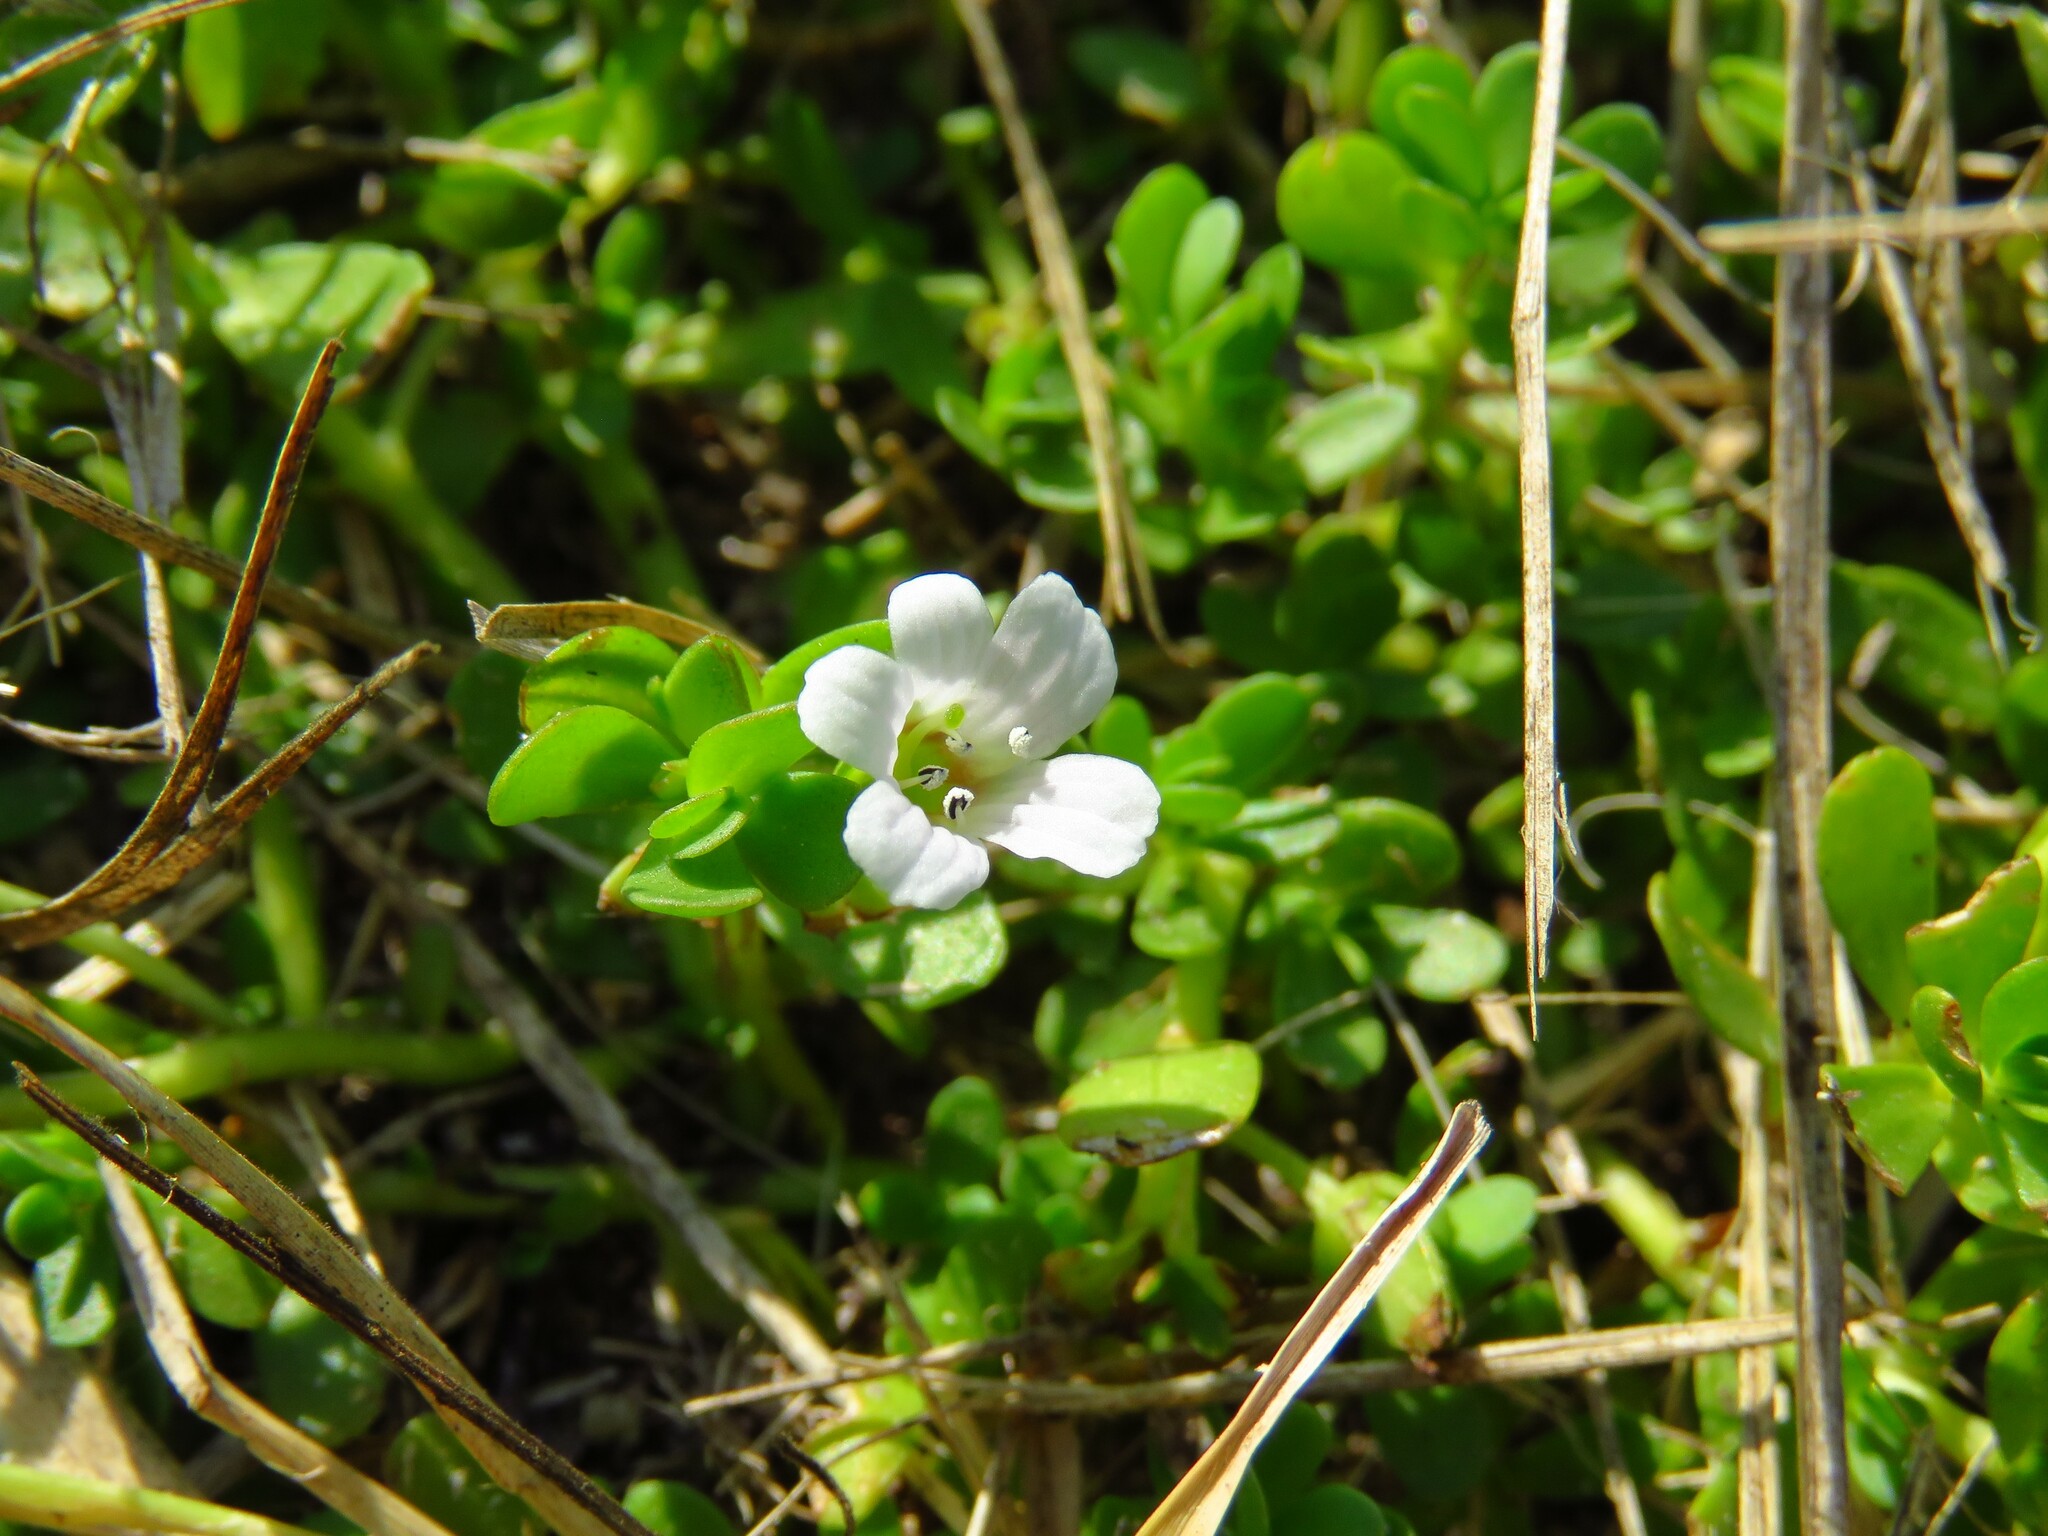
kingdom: Plantae
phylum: Tracheophyta
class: Magnoliopsida
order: Lamiales
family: Plantaginaceae
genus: Bacopa
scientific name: Bacopa monnieri
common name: Indian-pennywort
